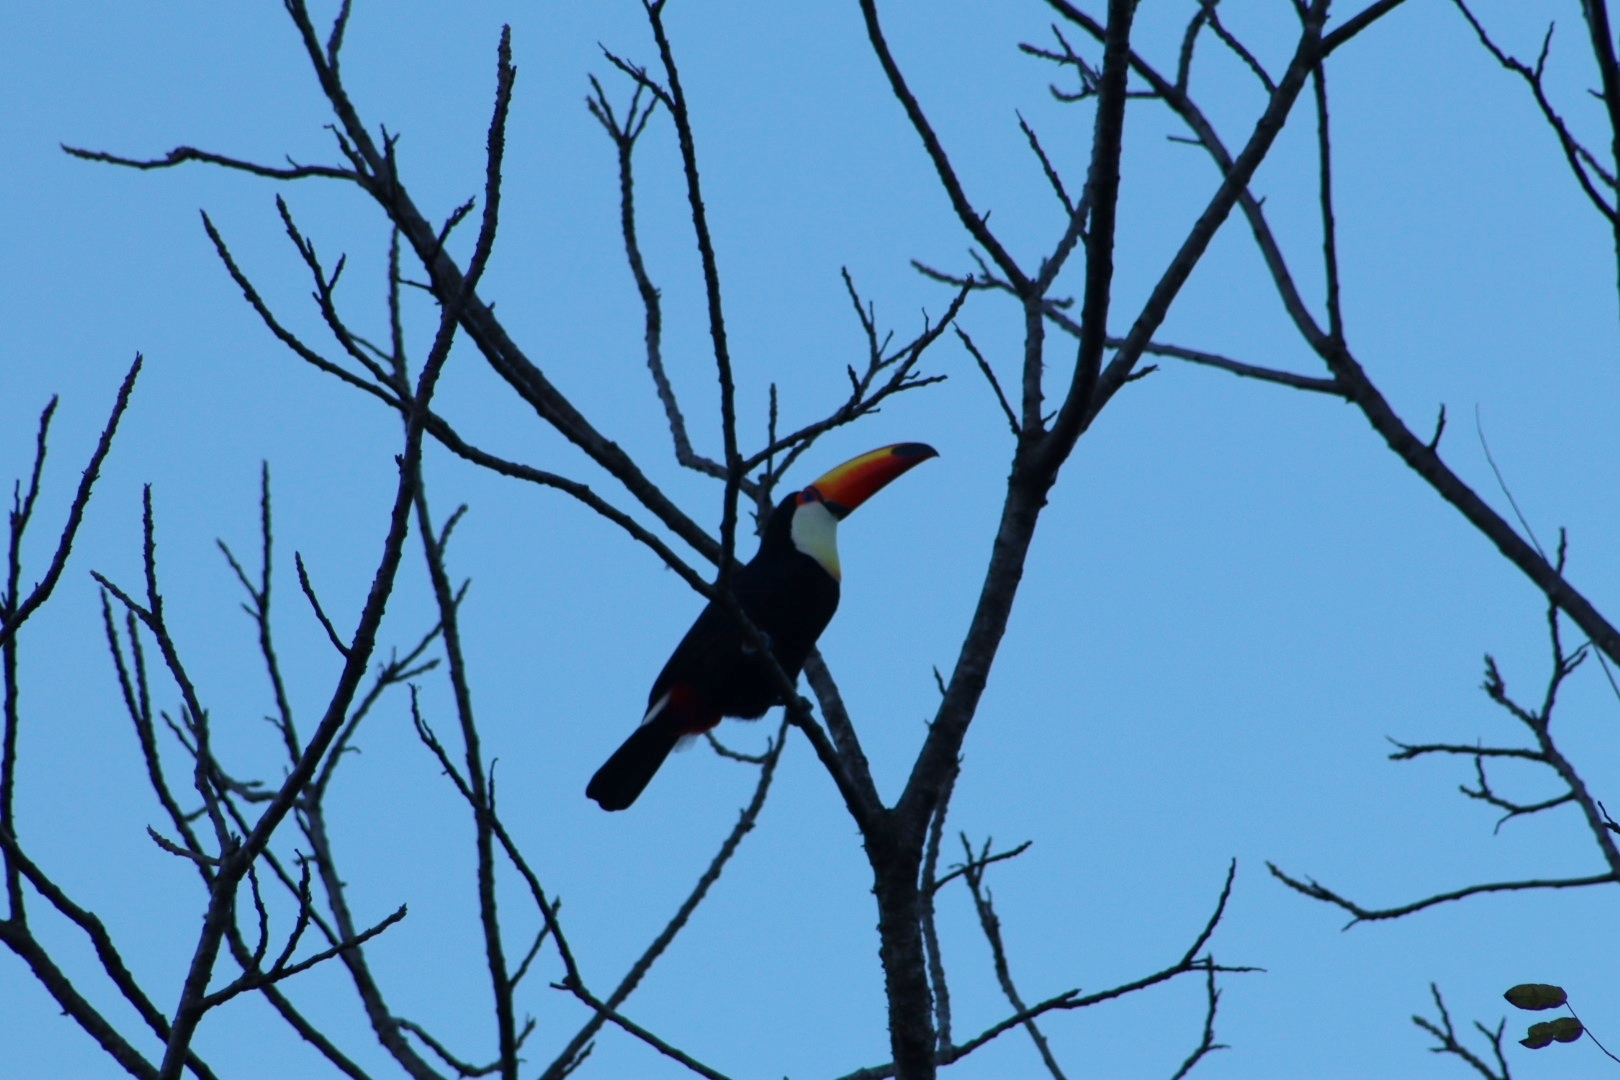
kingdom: Animalia
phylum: Chordata
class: Aves
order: Piciformes
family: Ramphastidae
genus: Ramphastos
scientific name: Ramphastos toco
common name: Toco toucan
